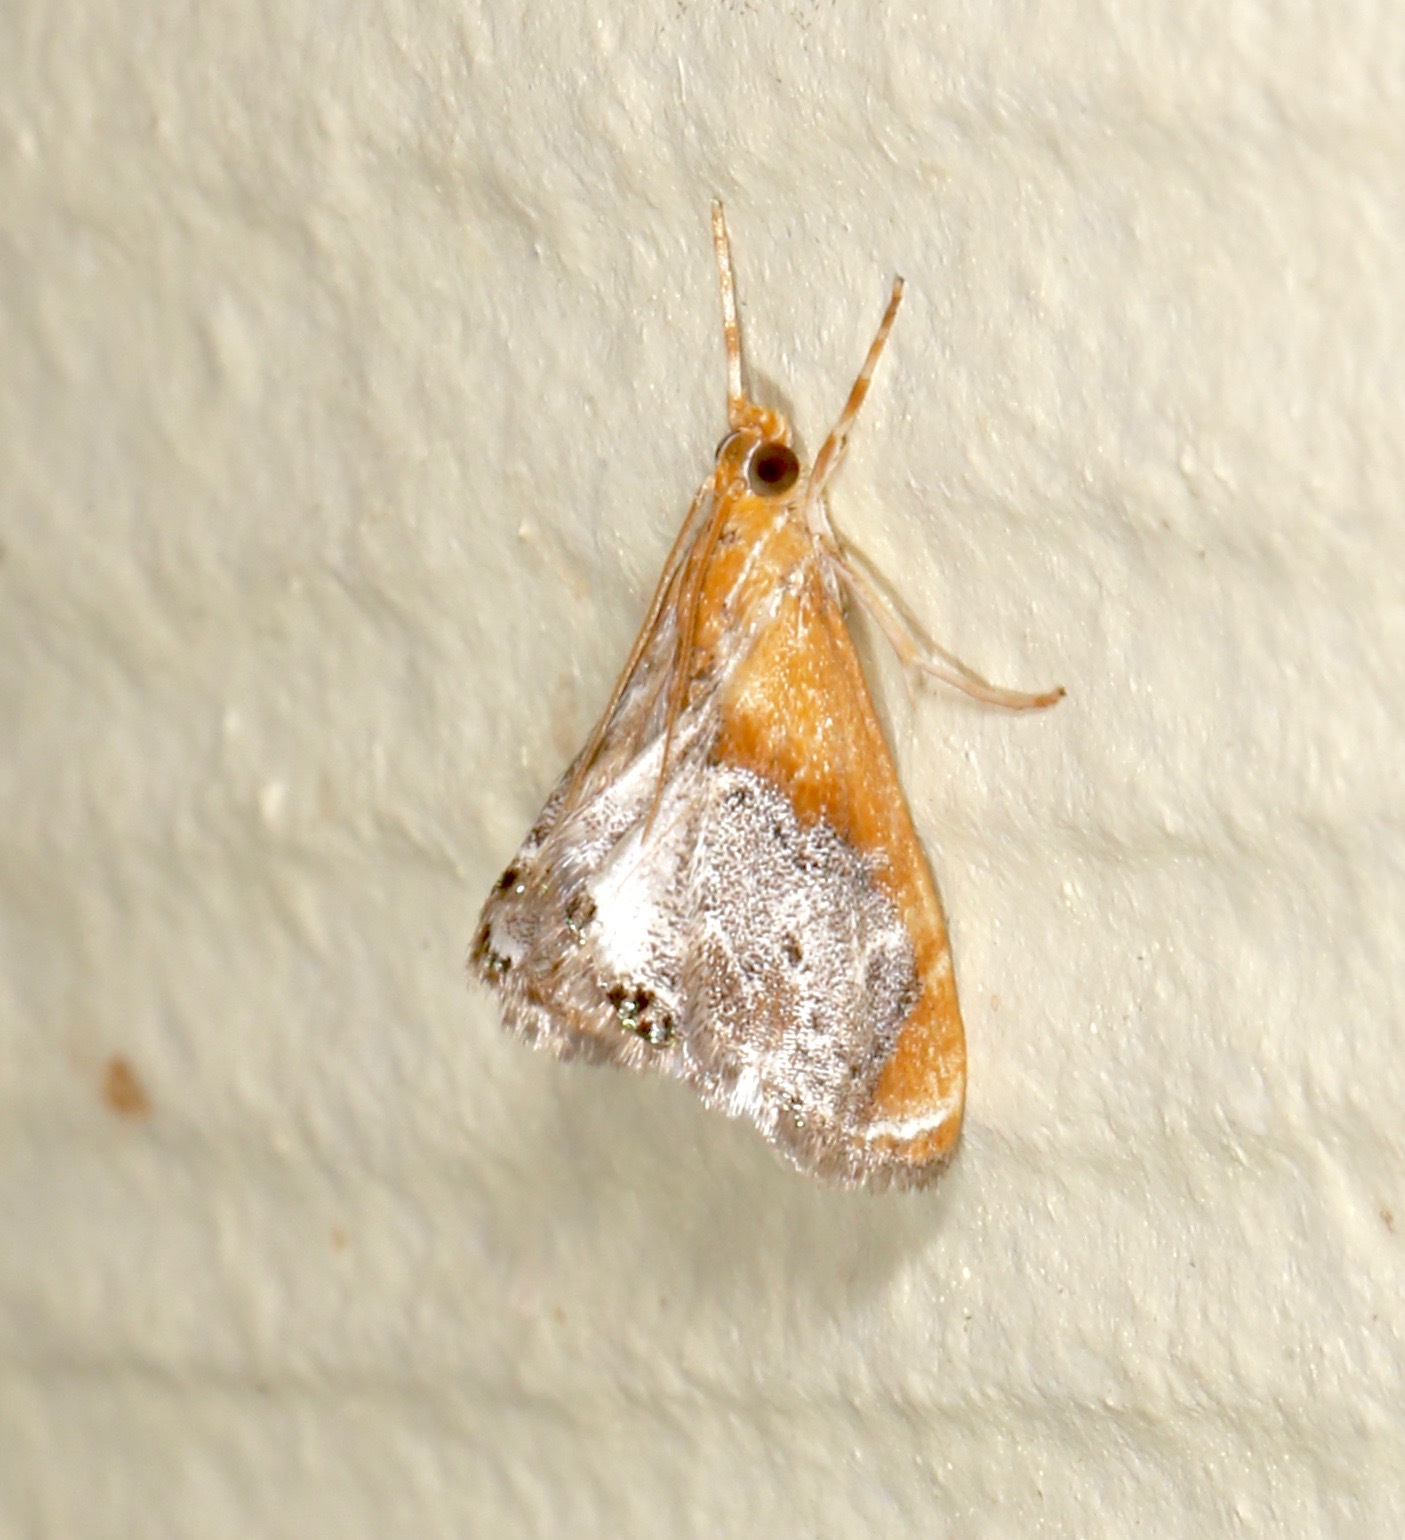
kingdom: Animalia
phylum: Arthropoda
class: Insecta
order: Lepidoptera
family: Crambidae
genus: Chalcoela
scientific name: Chalcoela iphitalis
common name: Sooty-winged chalcoela moth
